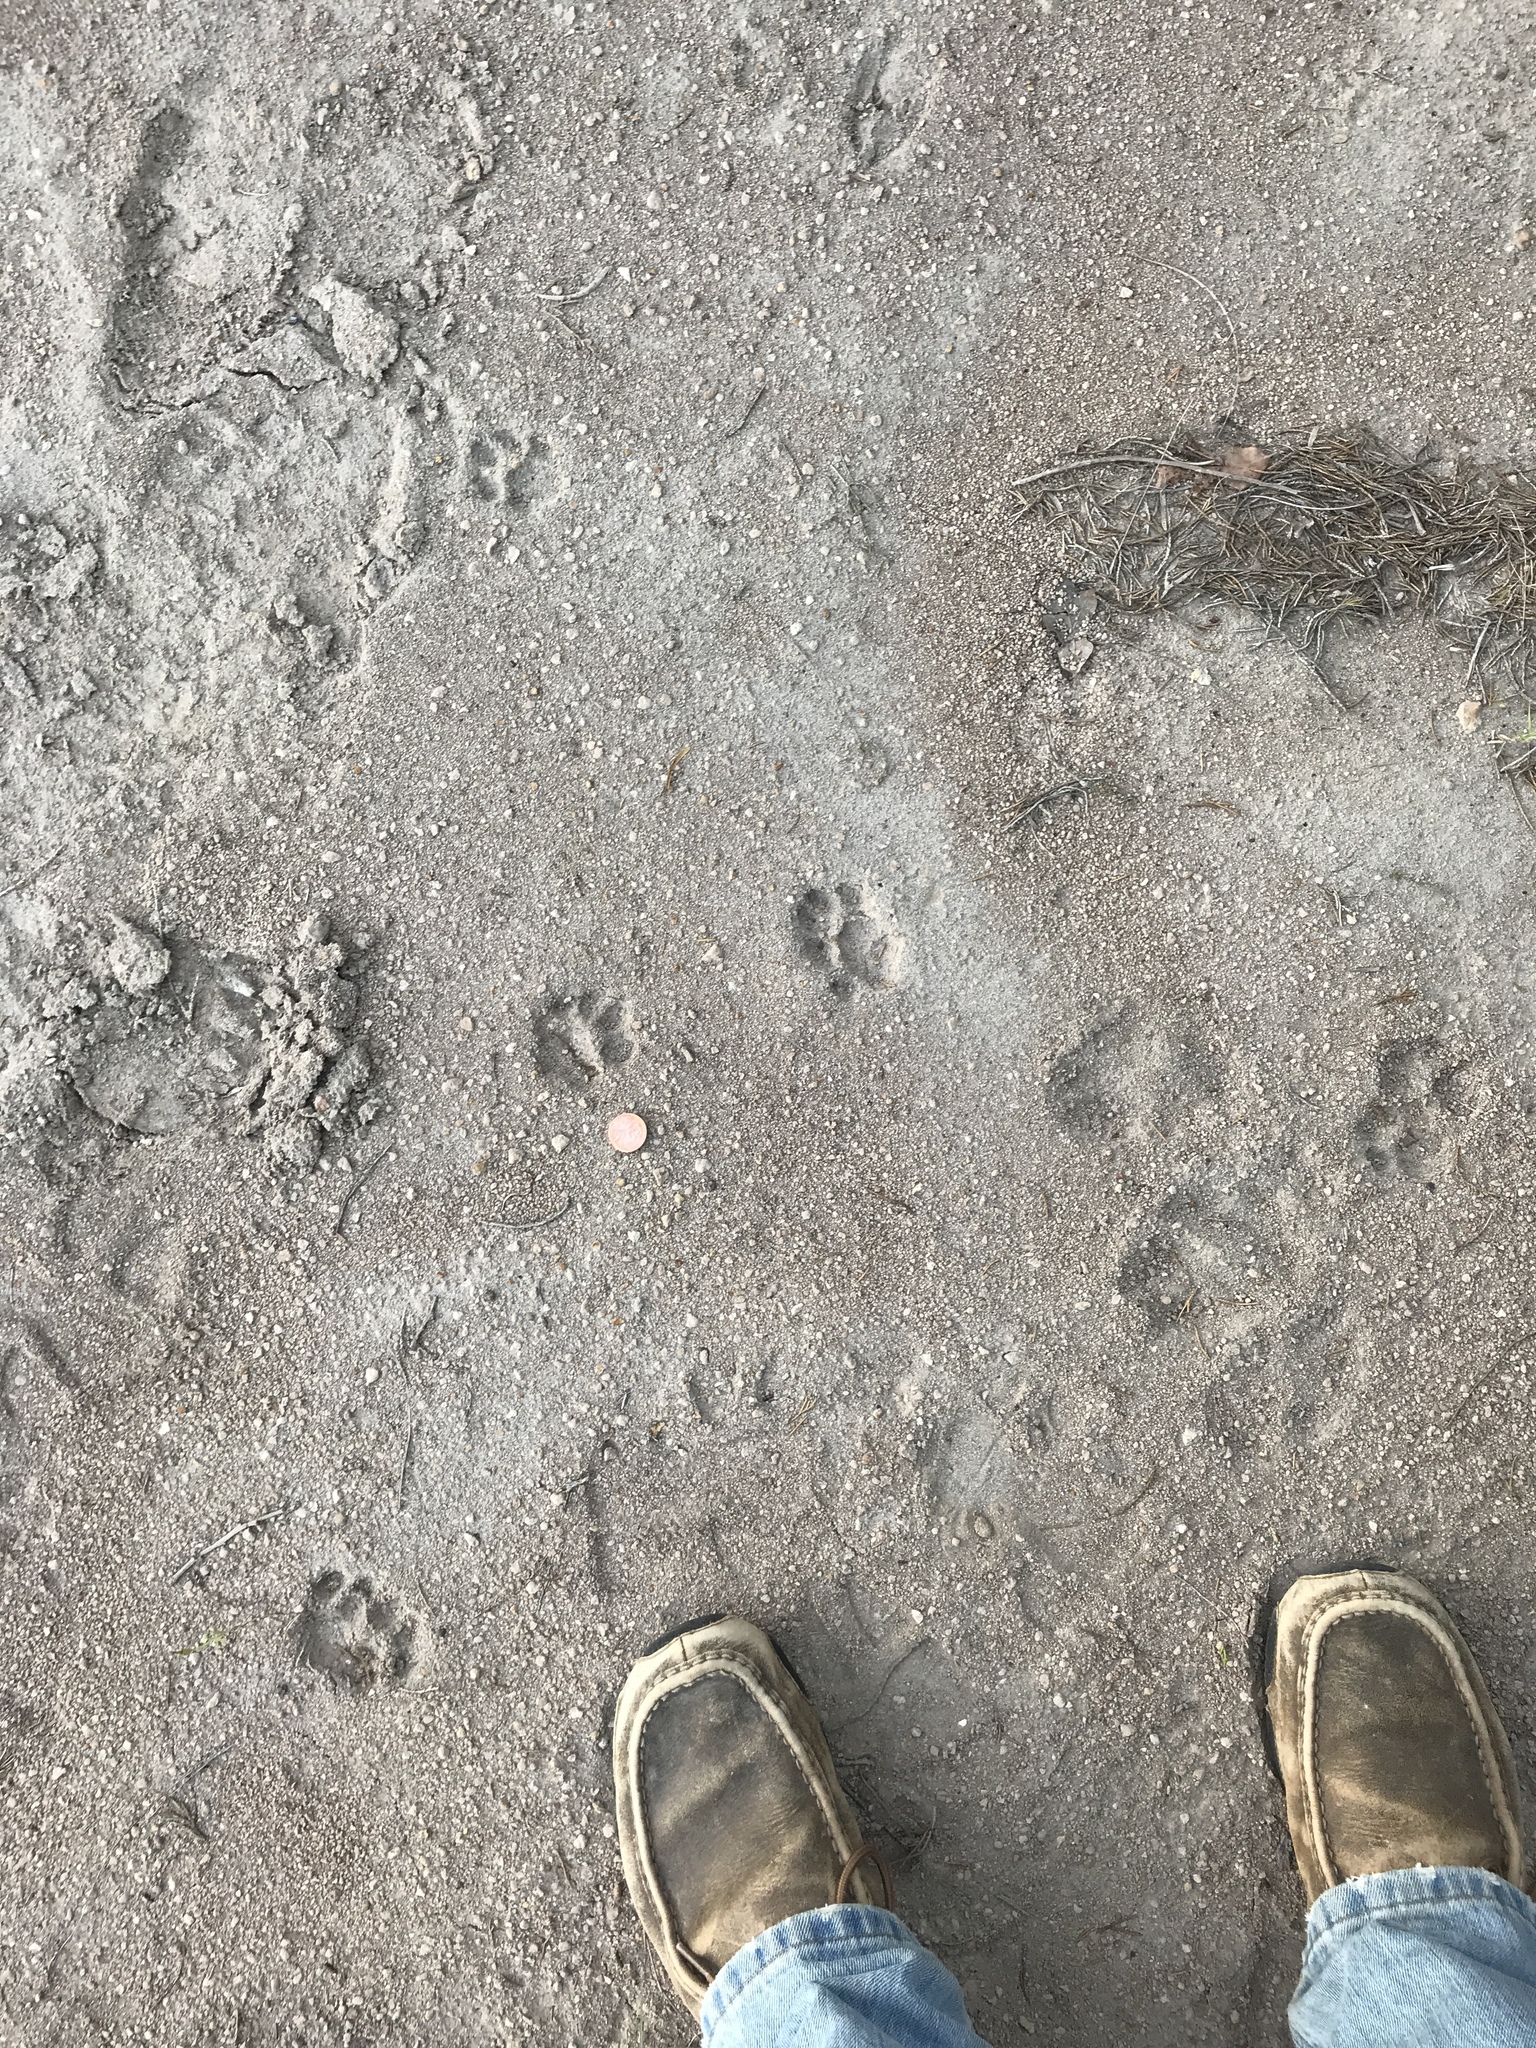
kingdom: Animalia
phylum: Chordata
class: Mammalia
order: Carnivora
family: Felidae
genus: Felis
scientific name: Felis catus
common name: Domestic cat
